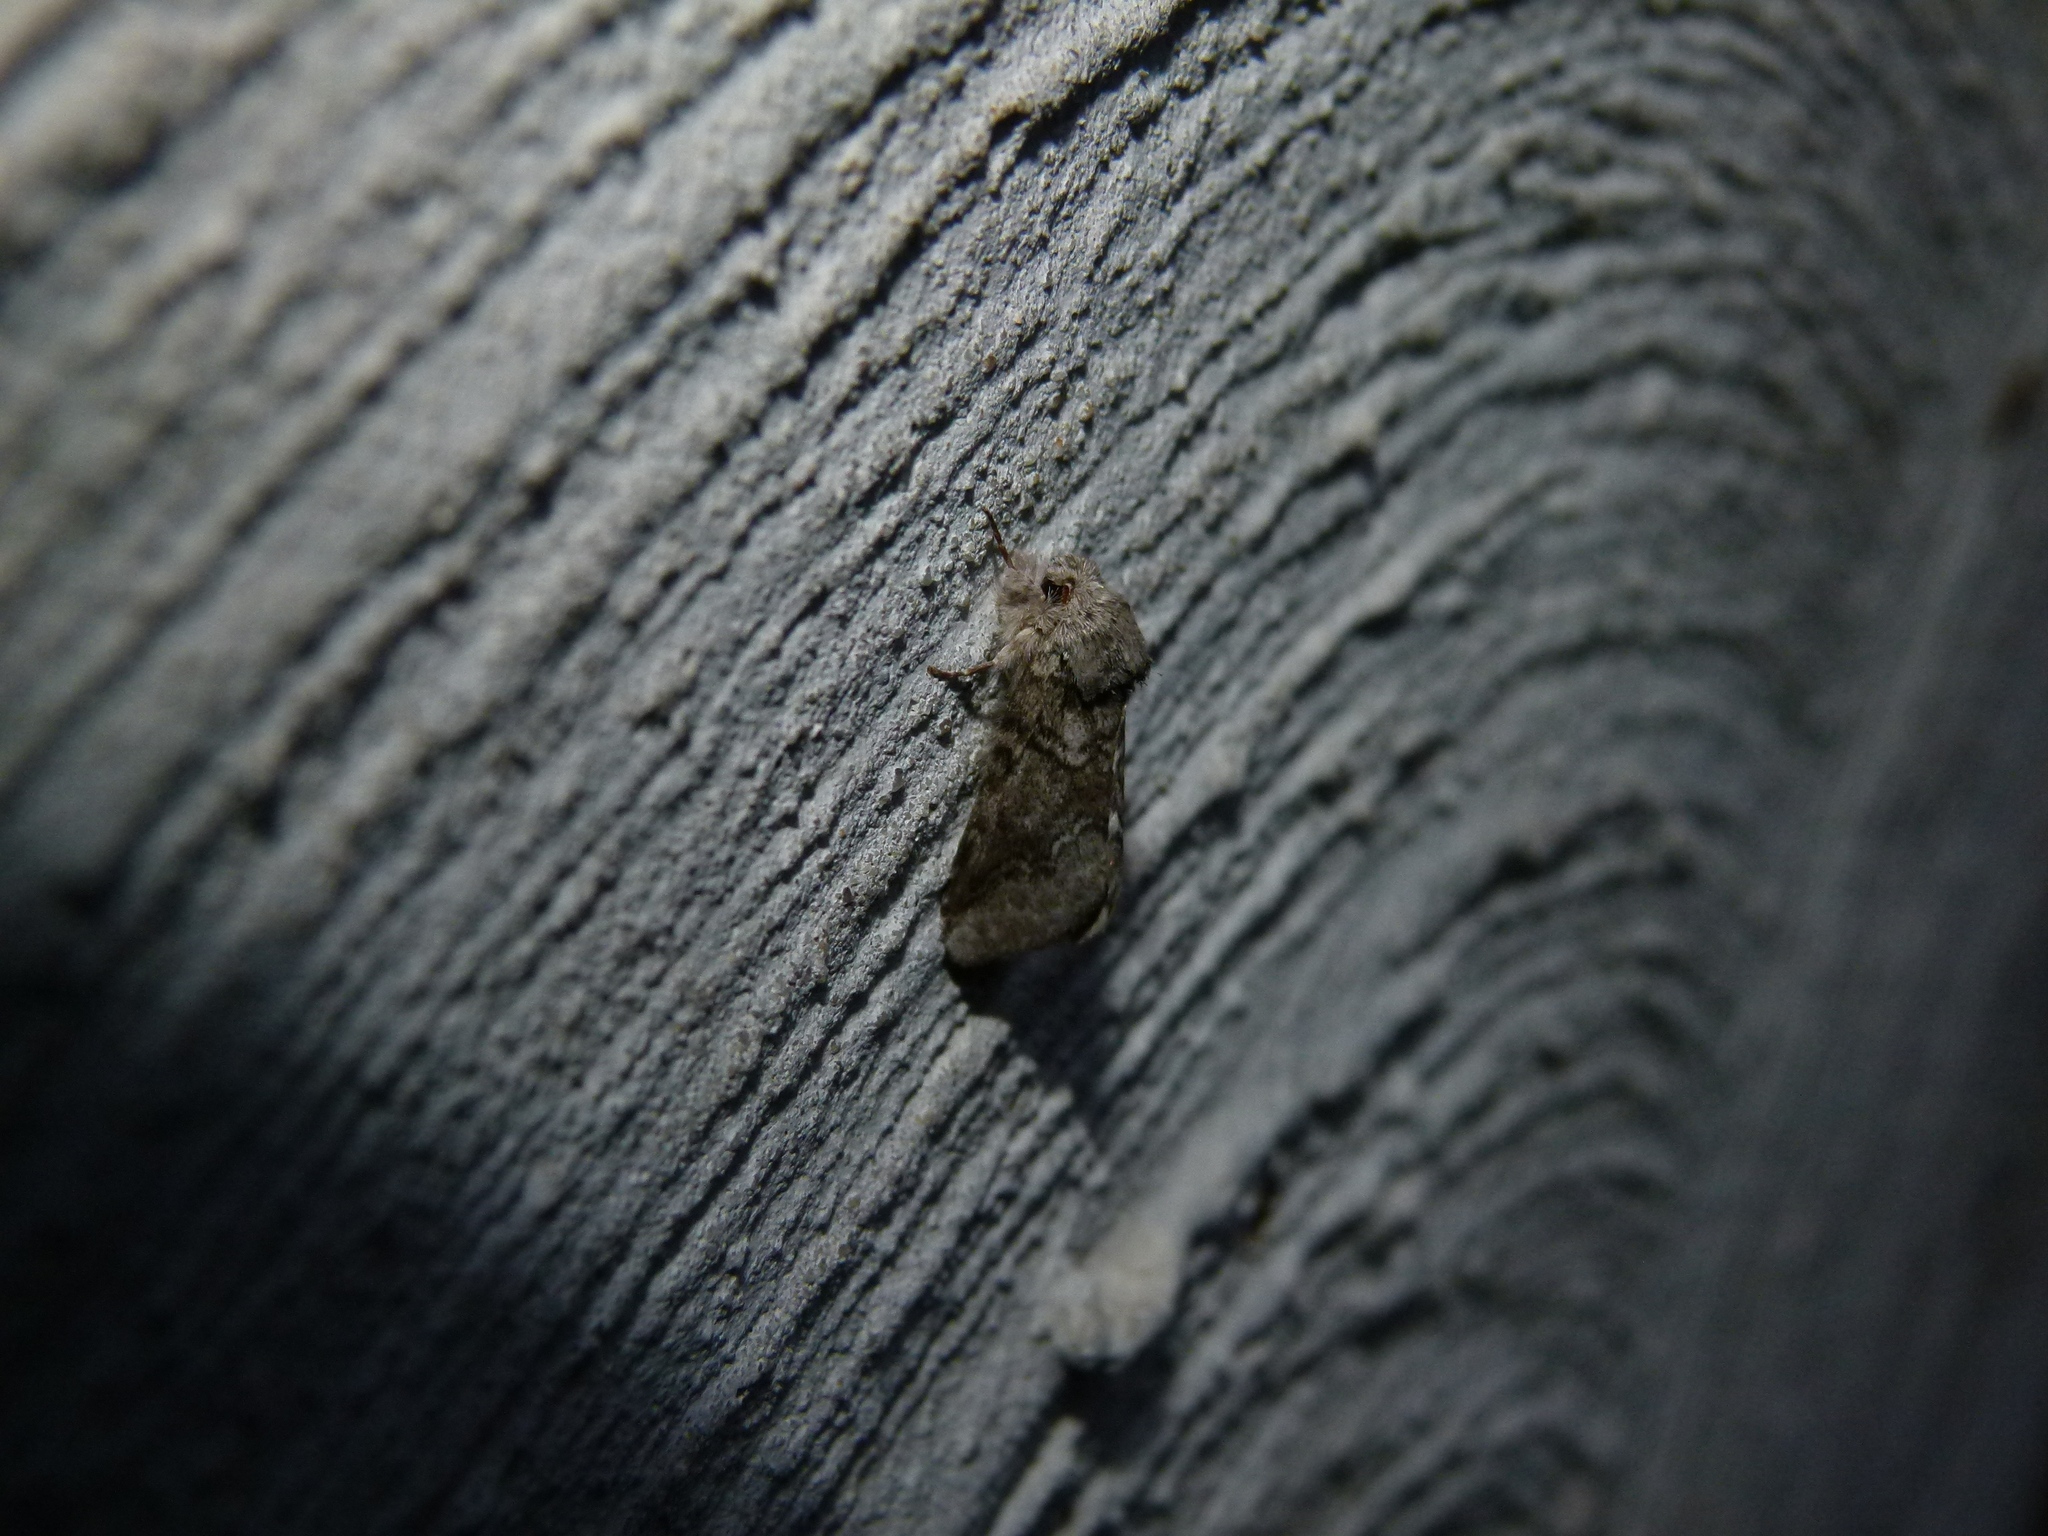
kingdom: Animalia
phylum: Arthropoda
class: Insecta
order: Lepidoptera
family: Notodontidae
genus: Lochmaeus
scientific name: Lochmaeus bilineata
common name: Double-lined prominent
